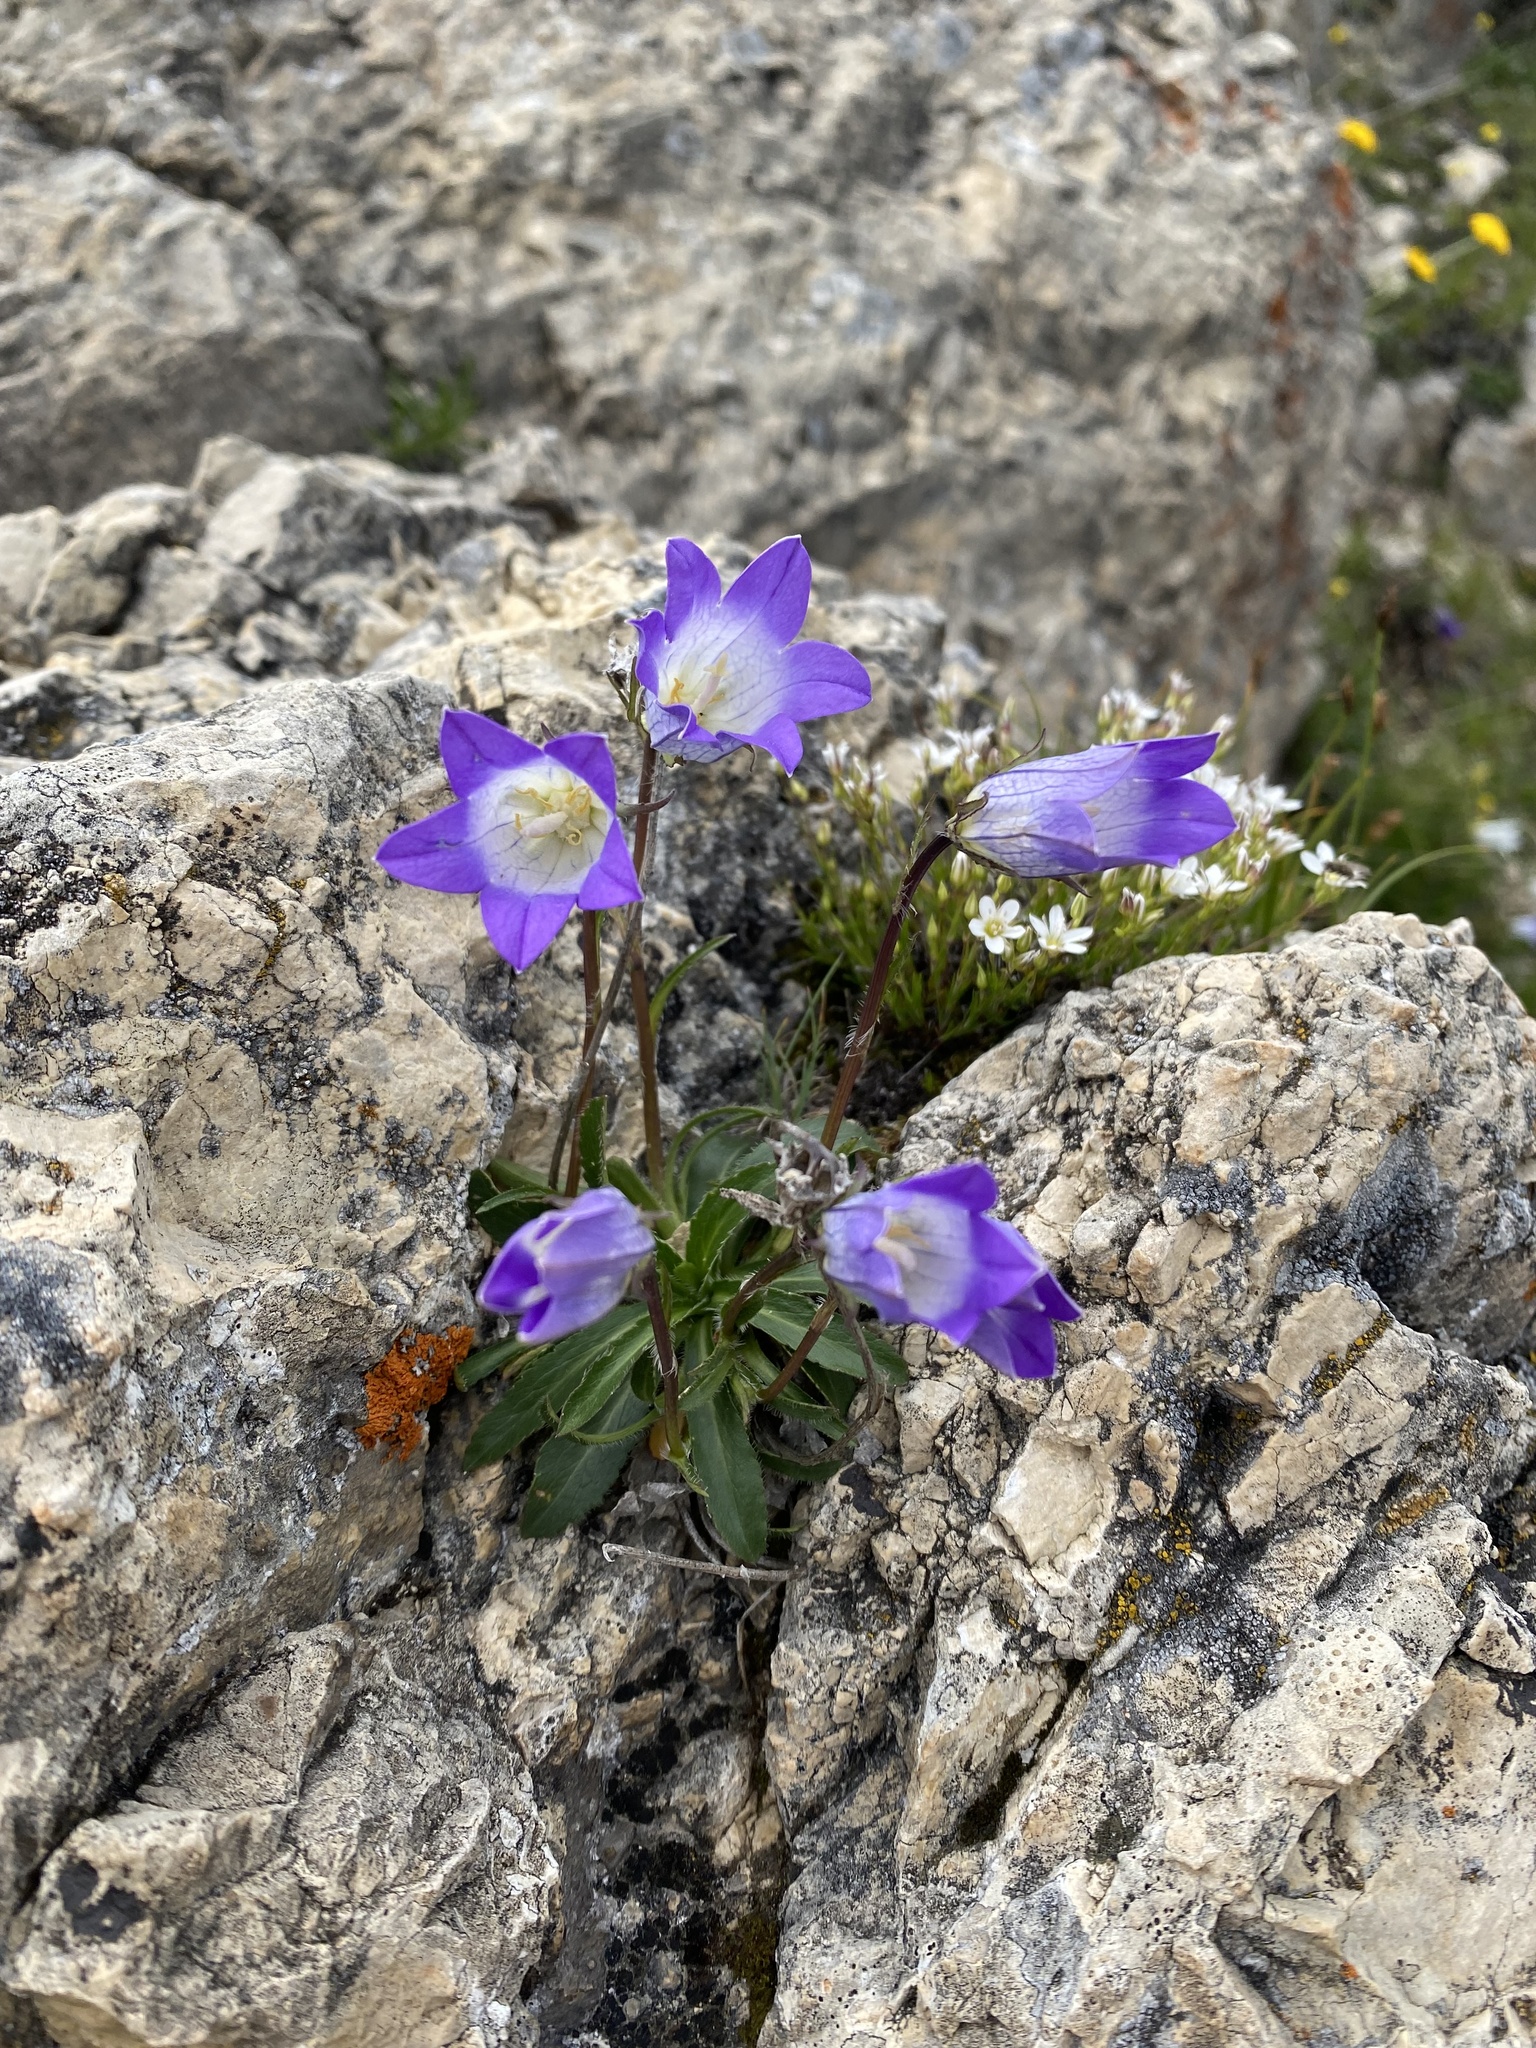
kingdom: Plantae
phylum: Tracheophyta
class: Magnoliopsida
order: Asterales
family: Campanulaceae
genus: Campanula
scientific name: Campanula tridentata
